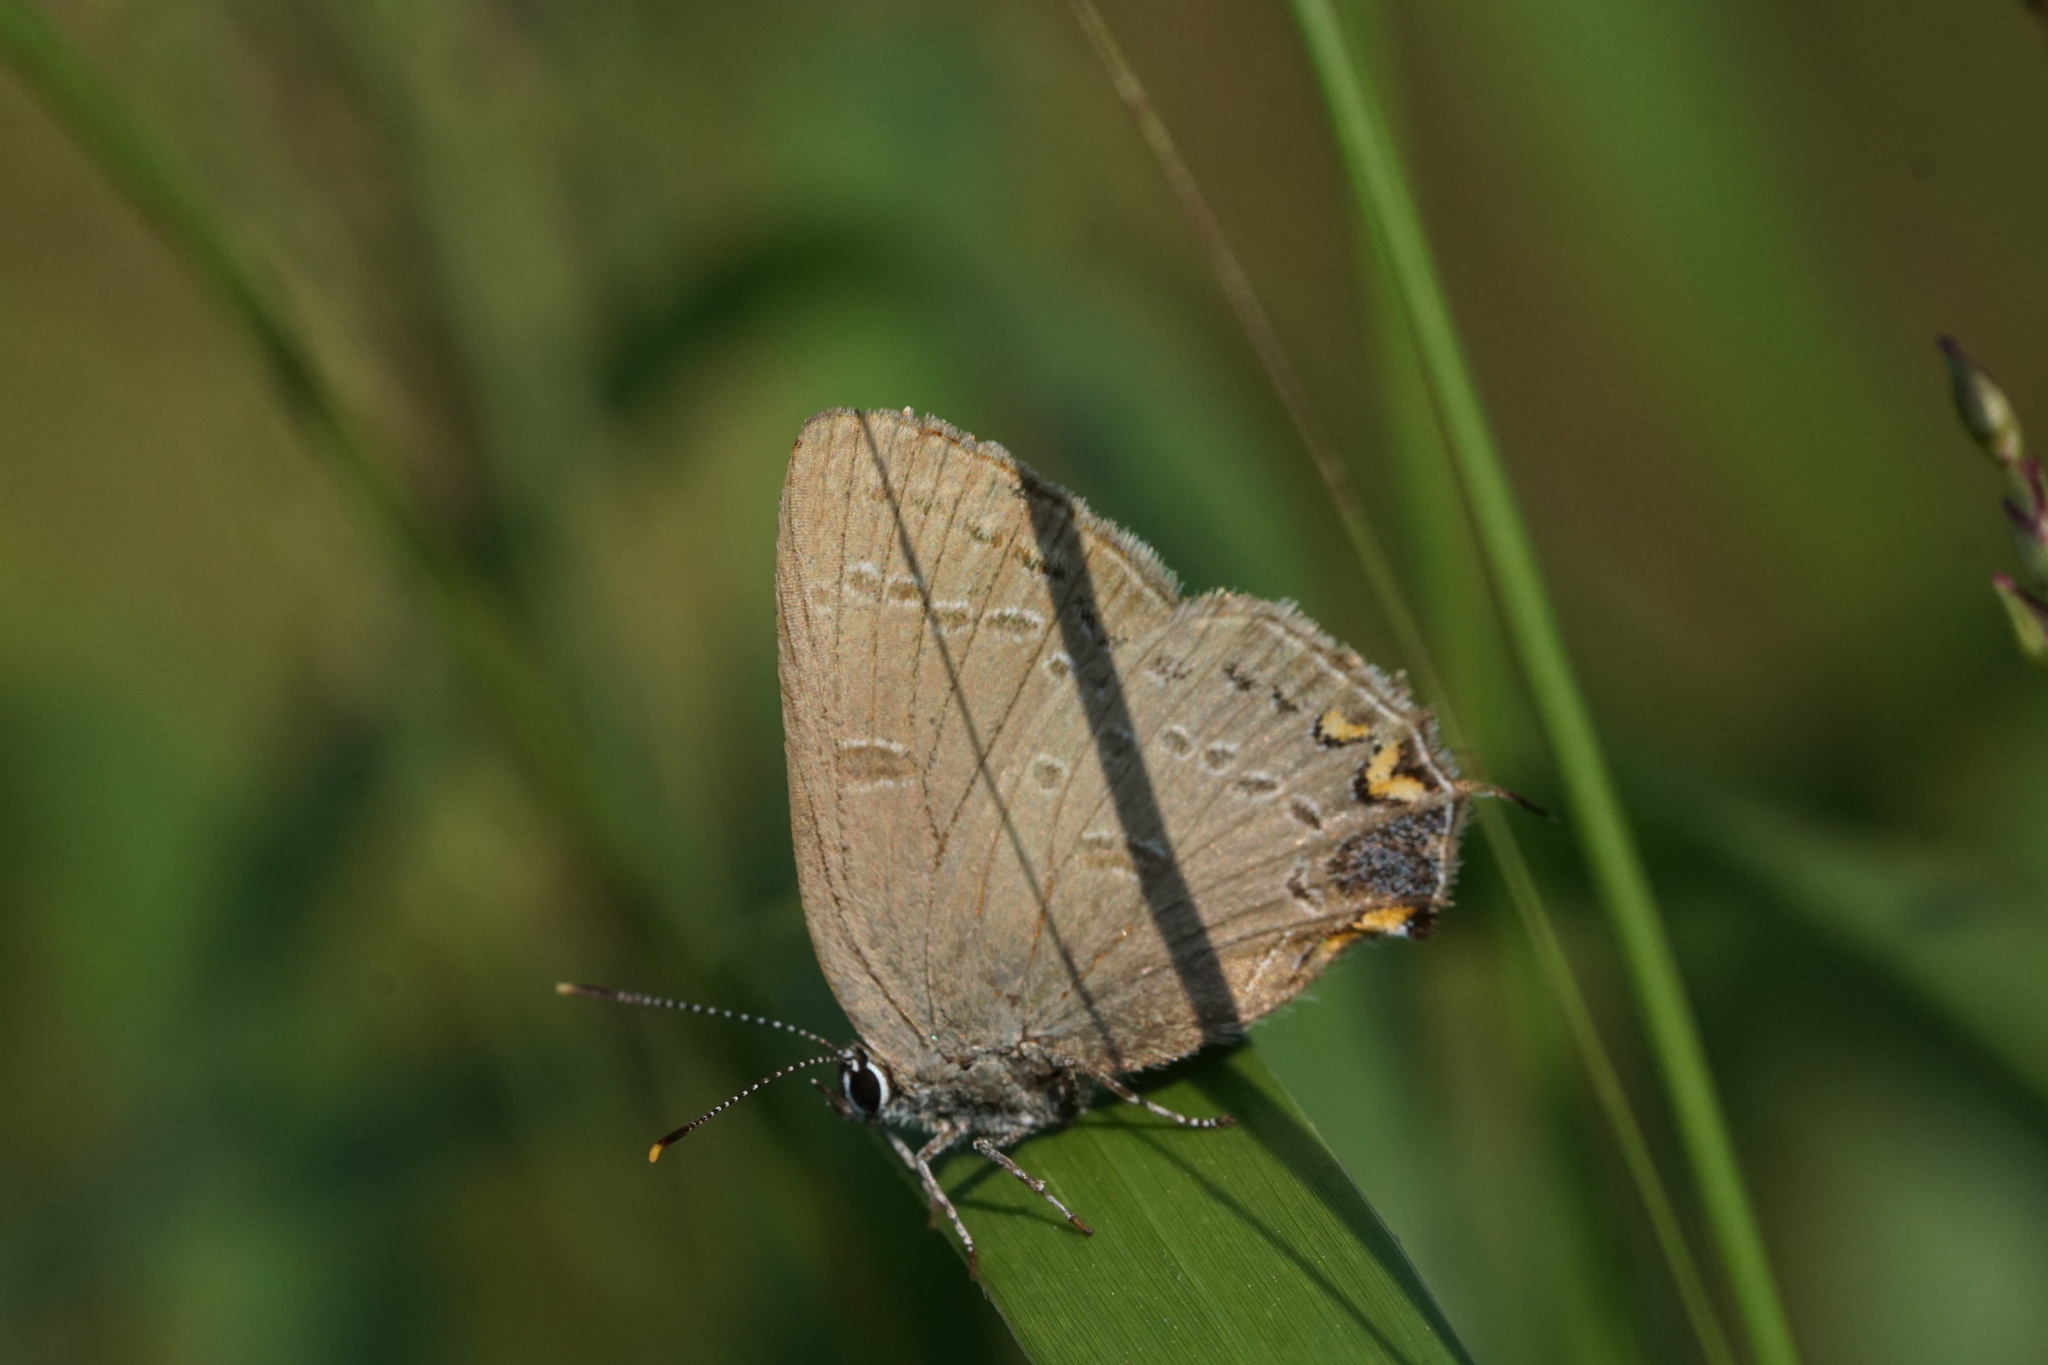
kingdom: Animalia
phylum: Arthropoda
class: Insecta
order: Lepidoptera
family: Lycaenidae
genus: Satyrium
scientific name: Satyrium edwardsii
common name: Edwards' hairstreak
